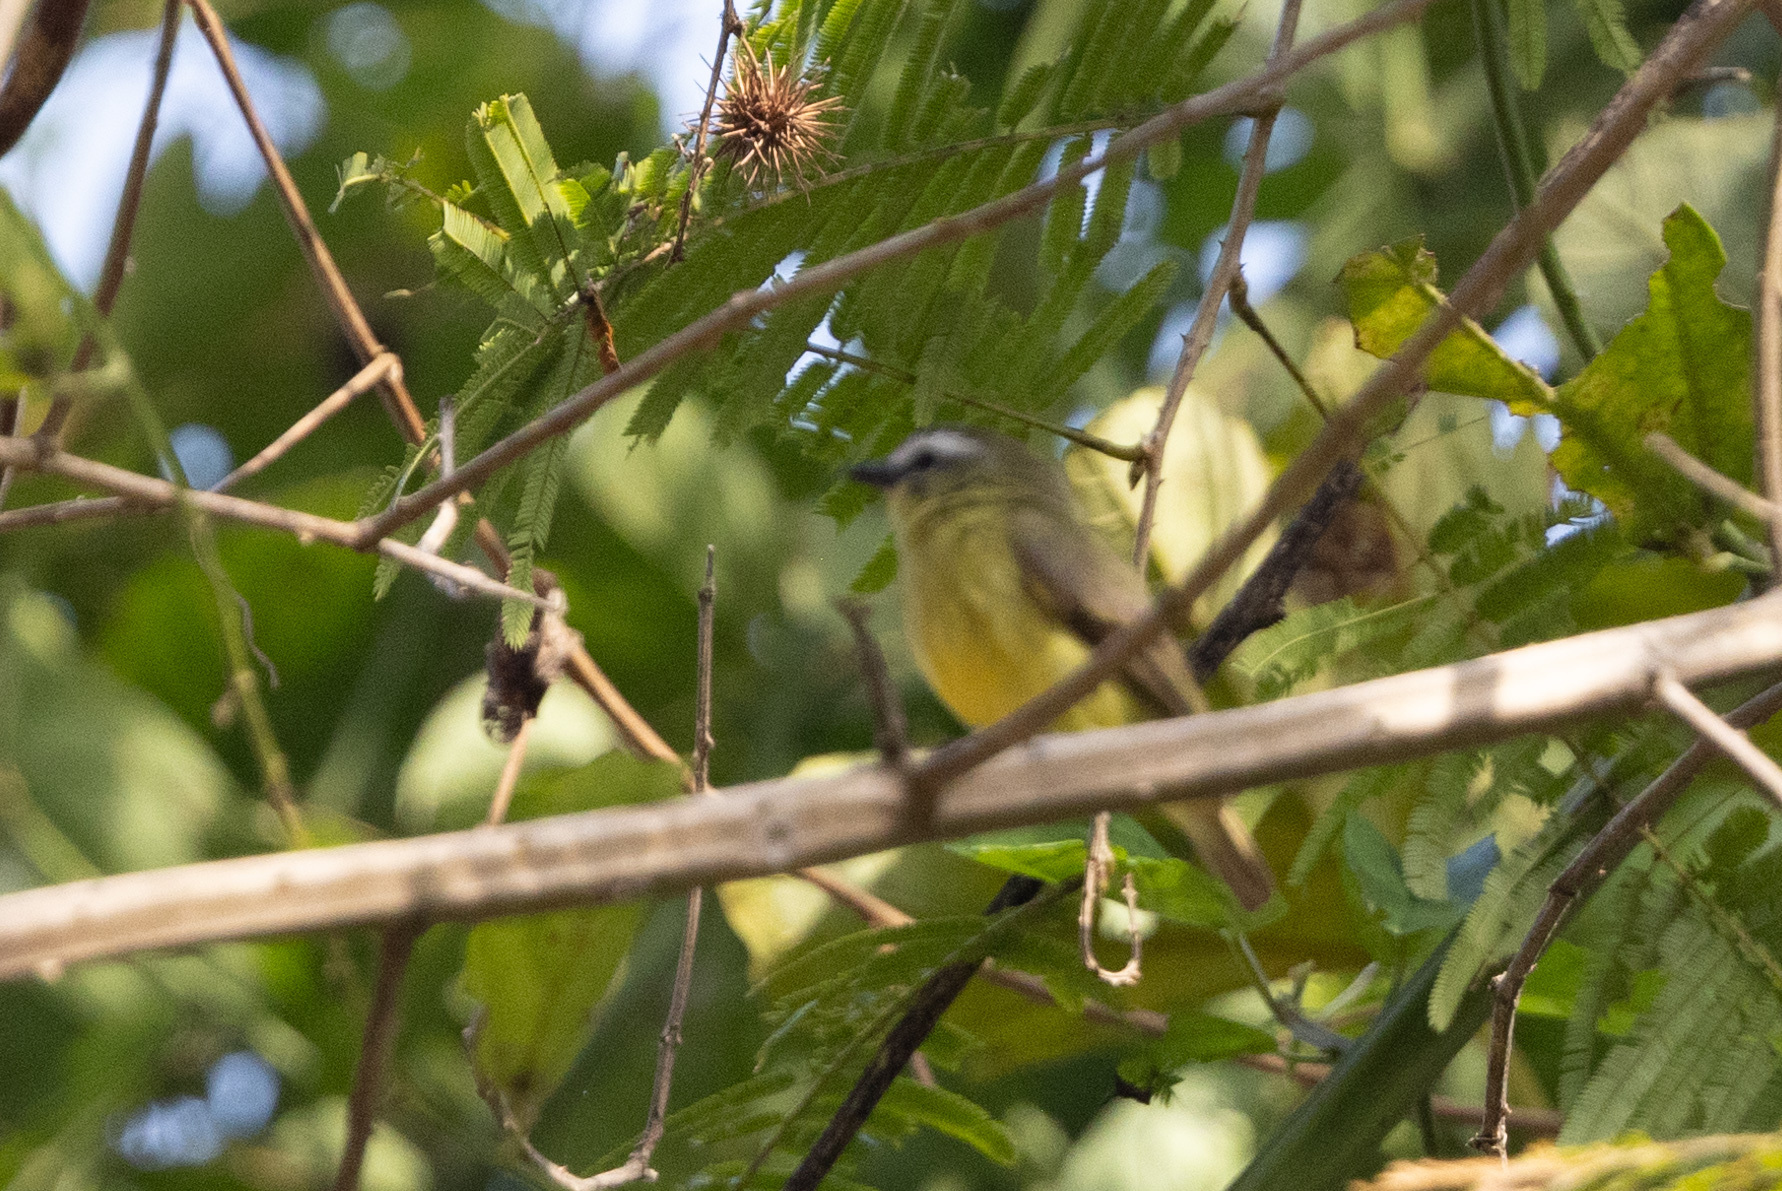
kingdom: Animalia
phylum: Chordata
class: Aves
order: Passeriformes
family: Tyrannidae
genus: Ornithion
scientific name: Ornithion brunneicapillus
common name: Brown-capped tyrannulet
